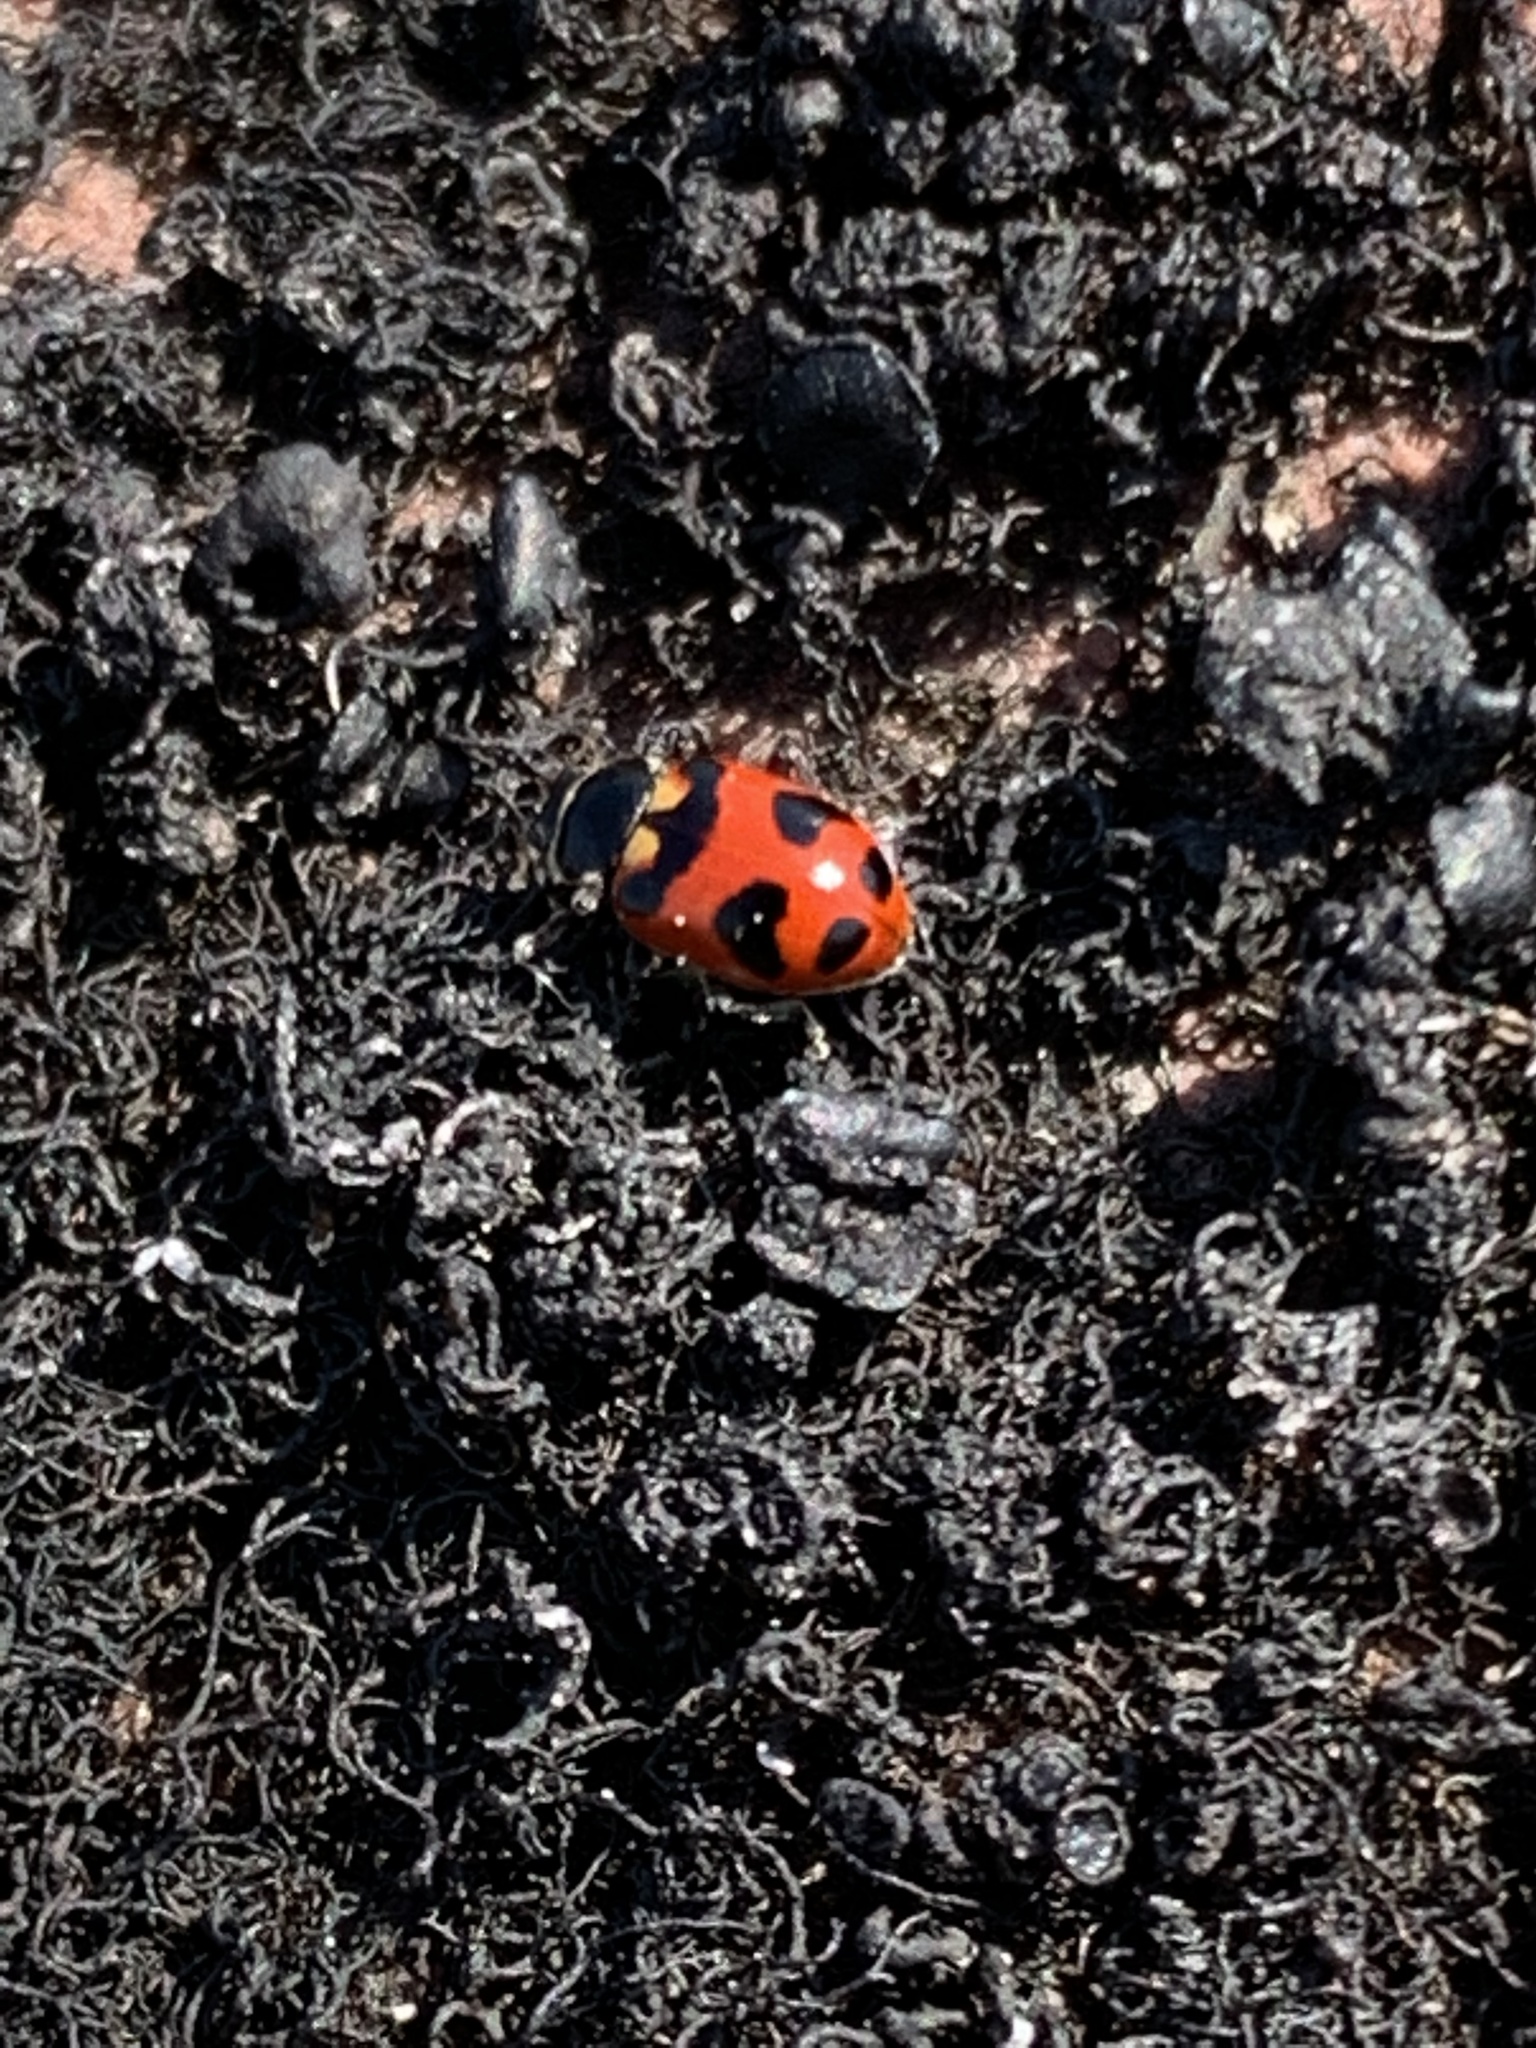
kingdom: Animalia
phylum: Arthropoda
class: Insecta
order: Coleoptera
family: Coccinellidae
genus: Hippodamia
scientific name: Hippodamia oregonensis
